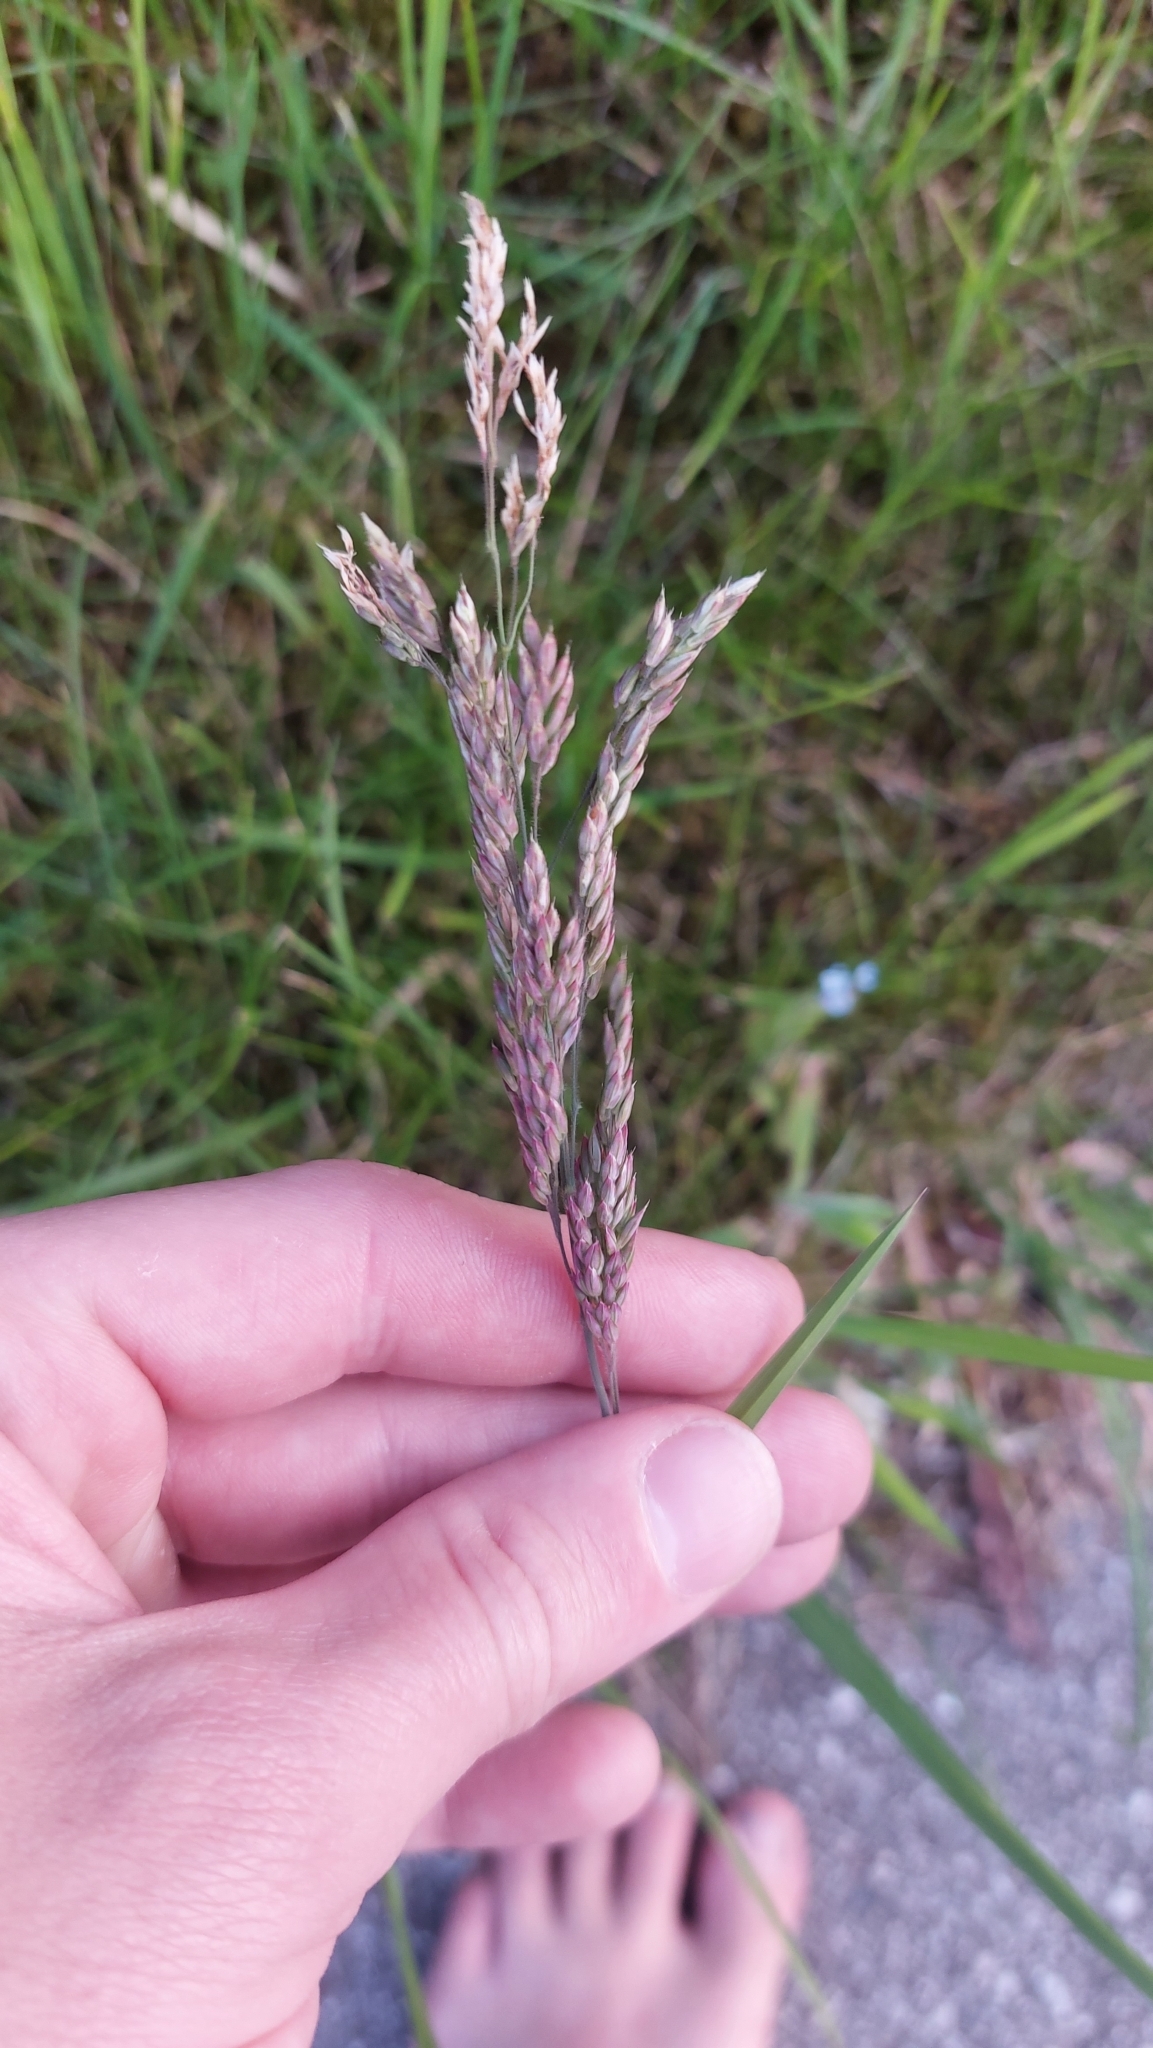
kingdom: Plantae
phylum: Tracheophyta
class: Liliopsida
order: Poales
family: Poaceae
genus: Holcus
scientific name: Holcus lanatus
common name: Yorkshire-fog
